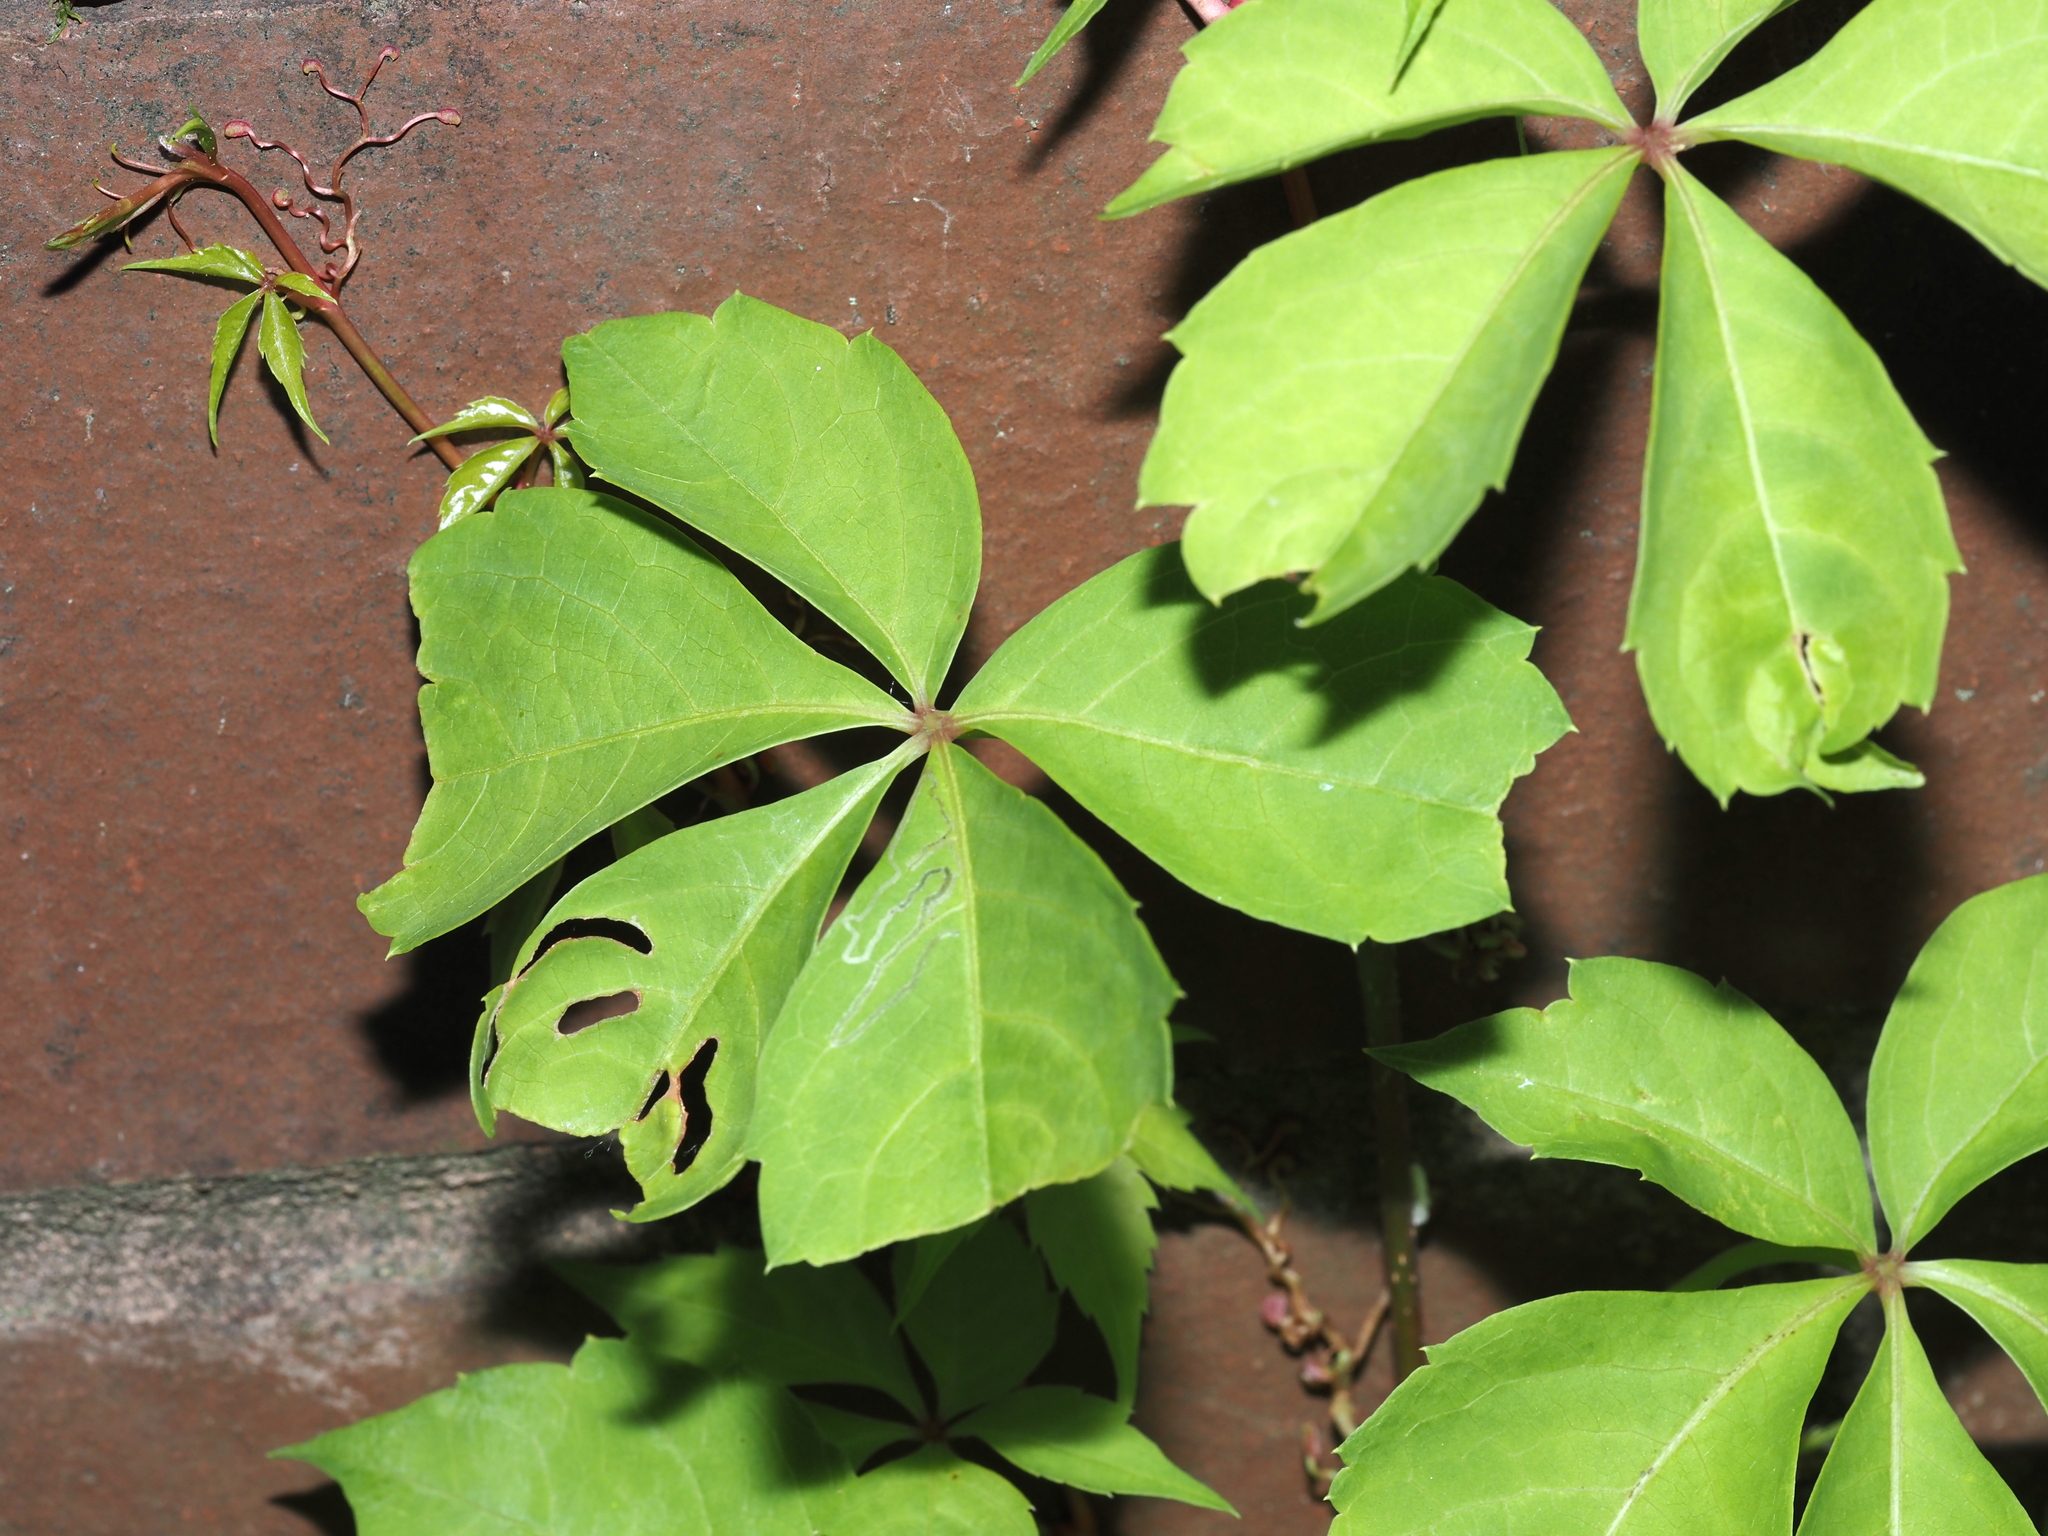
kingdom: Plantae
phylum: Tracheophyta
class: Magnoliopsida
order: Vitales
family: Vitaceae
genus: Parthenocissus
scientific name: Parthenocissus quinquefolia
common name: Virginia-creeper
